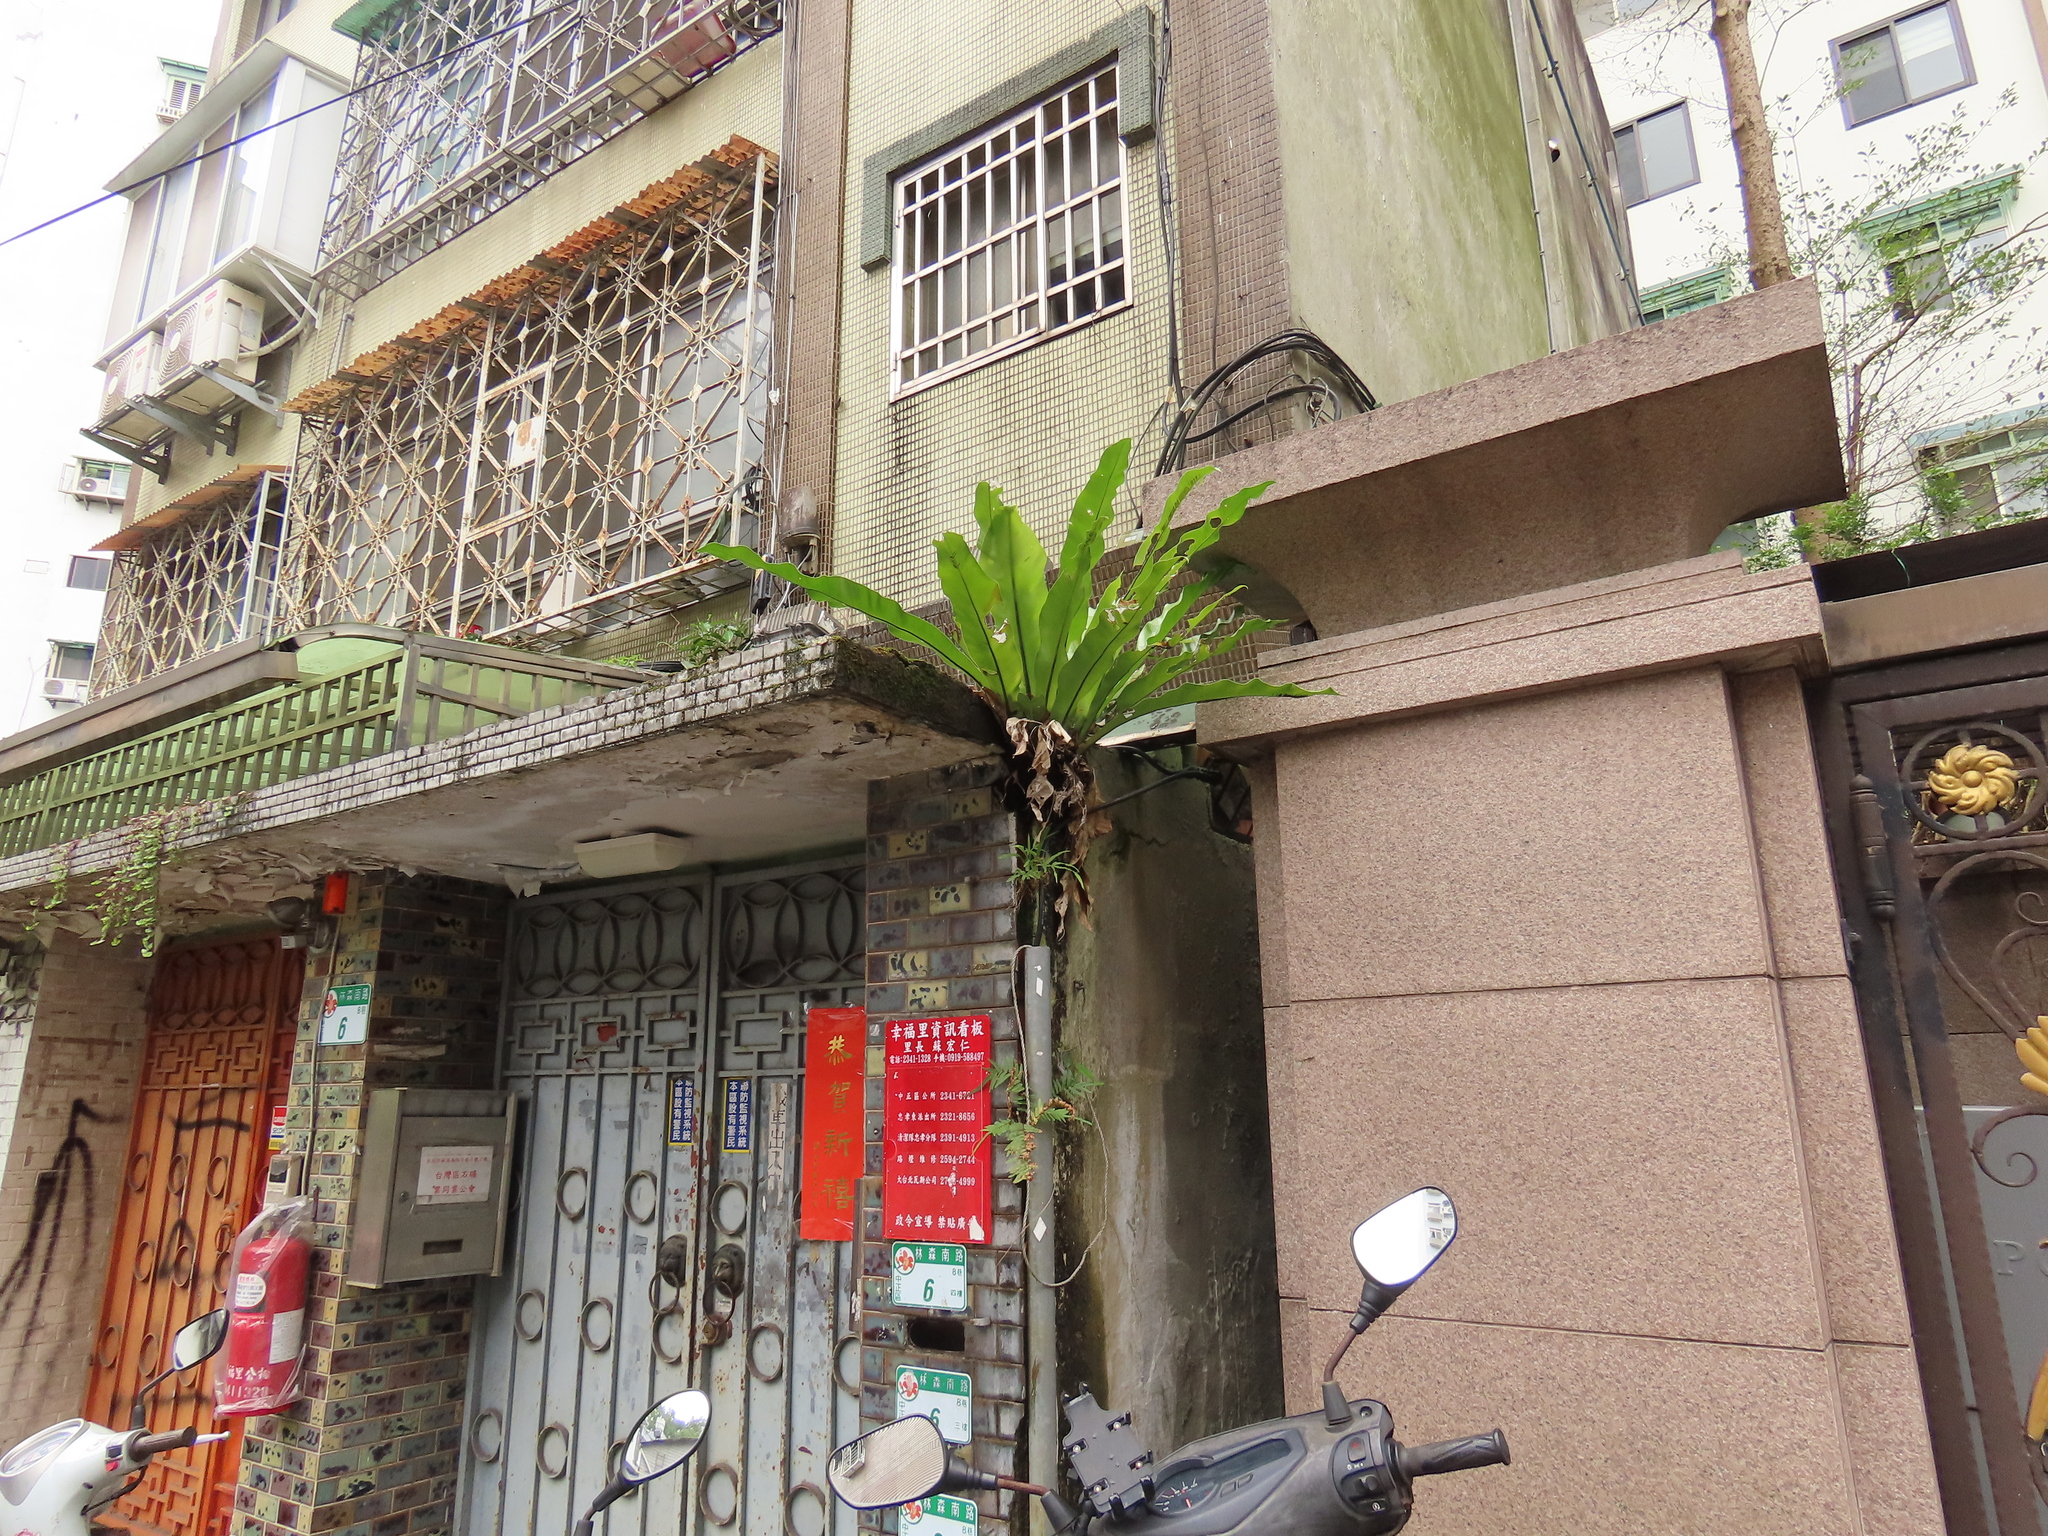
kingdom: Plantae
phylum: Tracheophyta
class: Polypodiopsida
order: Polypodiales
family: Pteridaceae
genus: Pteris
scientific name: Pteris vittata
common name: Ladder brake
